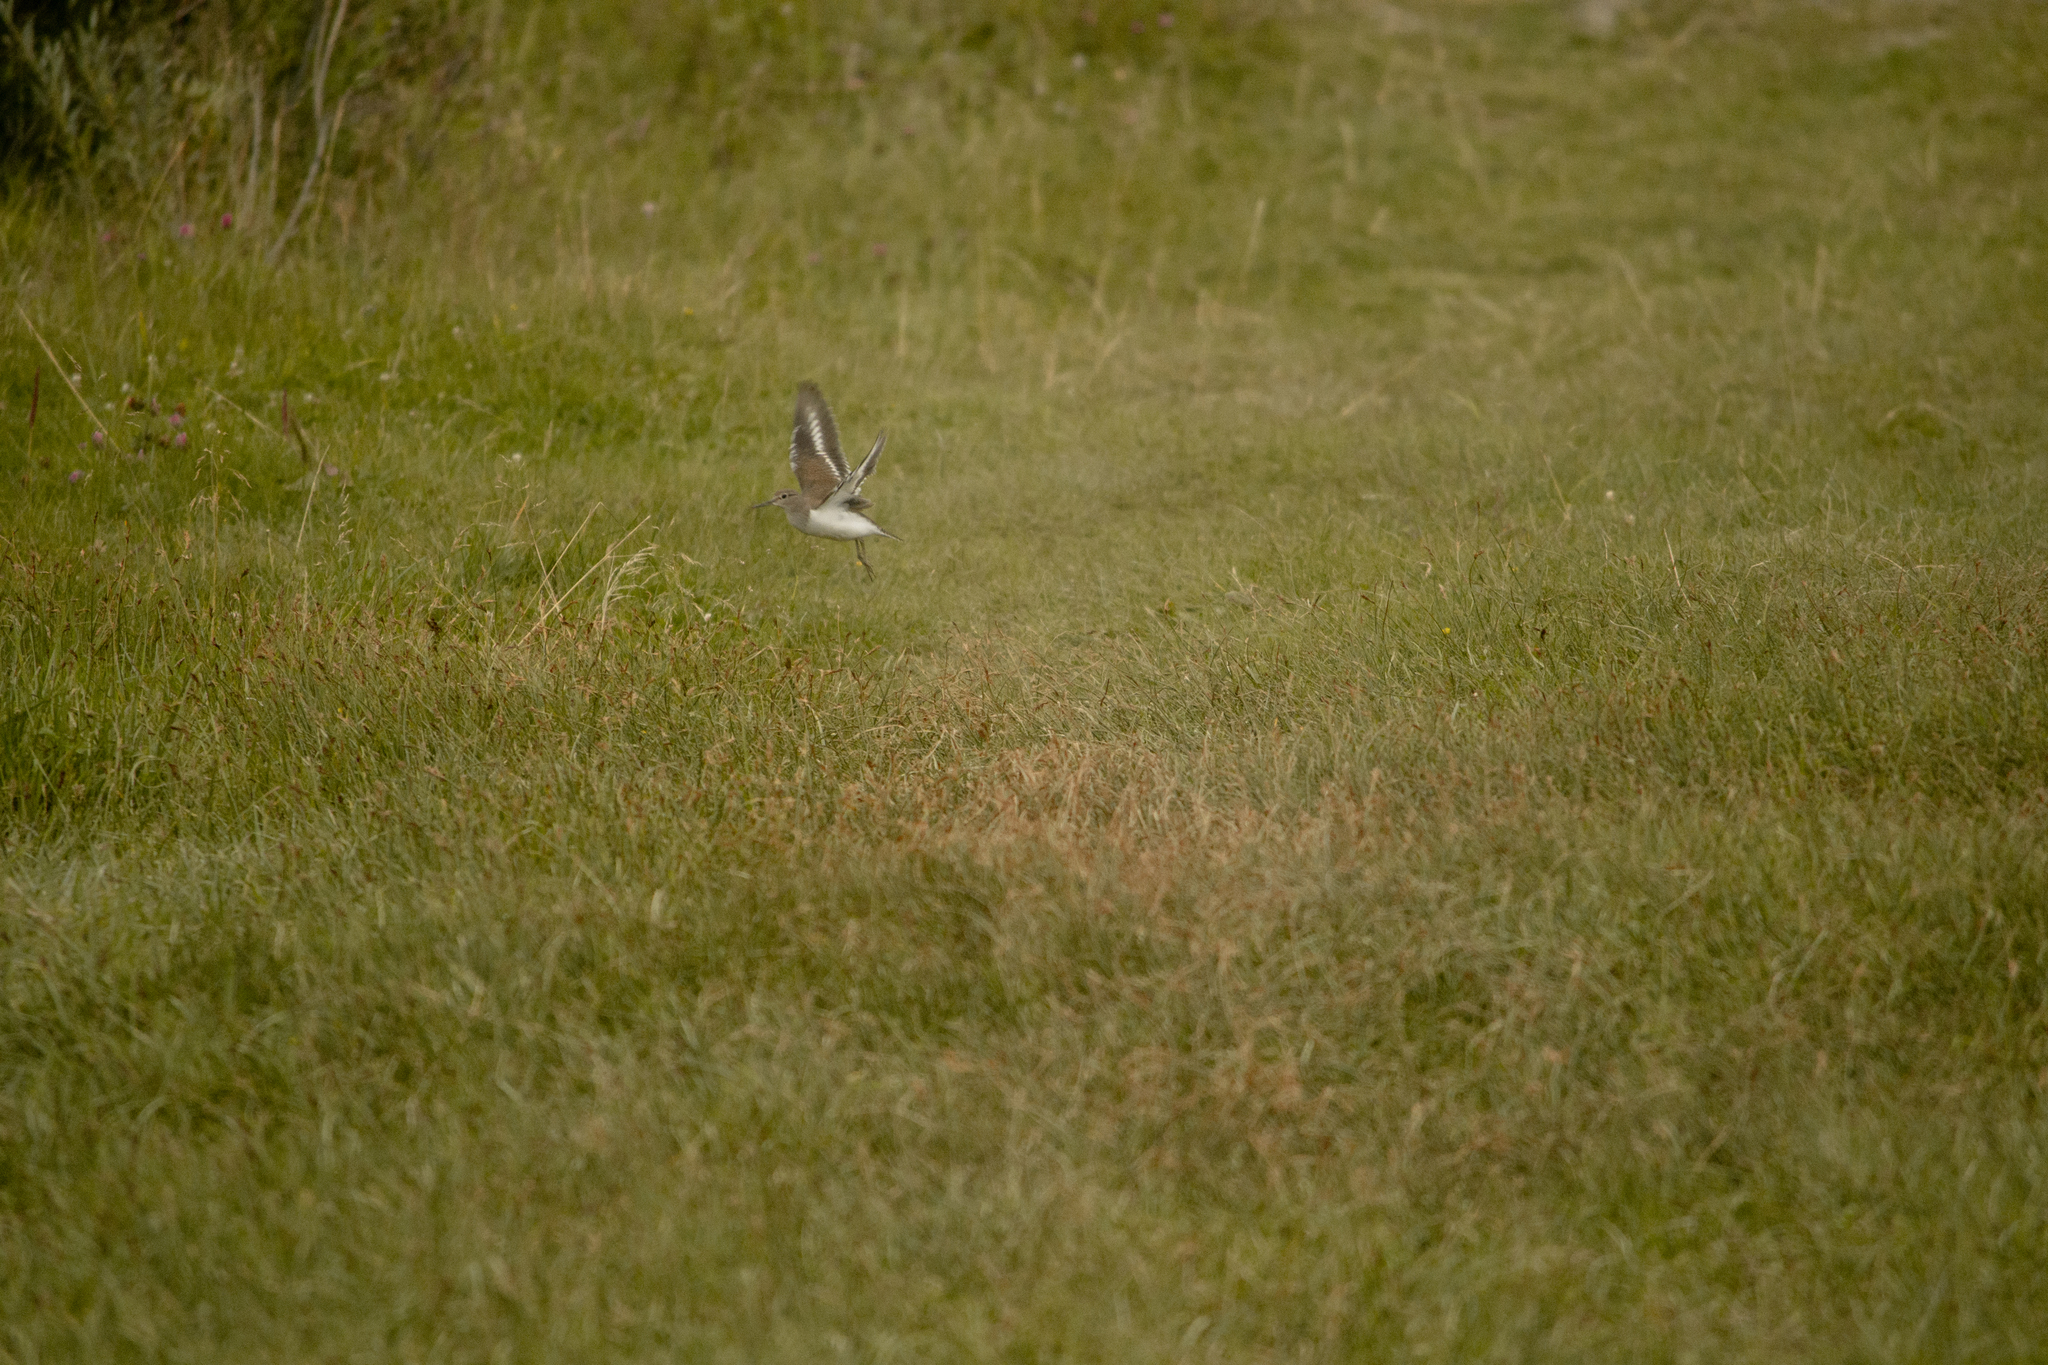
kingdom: Animalia
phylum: Chordata
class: Aves
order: Charadriiformes
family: Scolopacidae
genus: Actitis
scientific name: Actitis hypoleucos
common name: Common sandpiper
